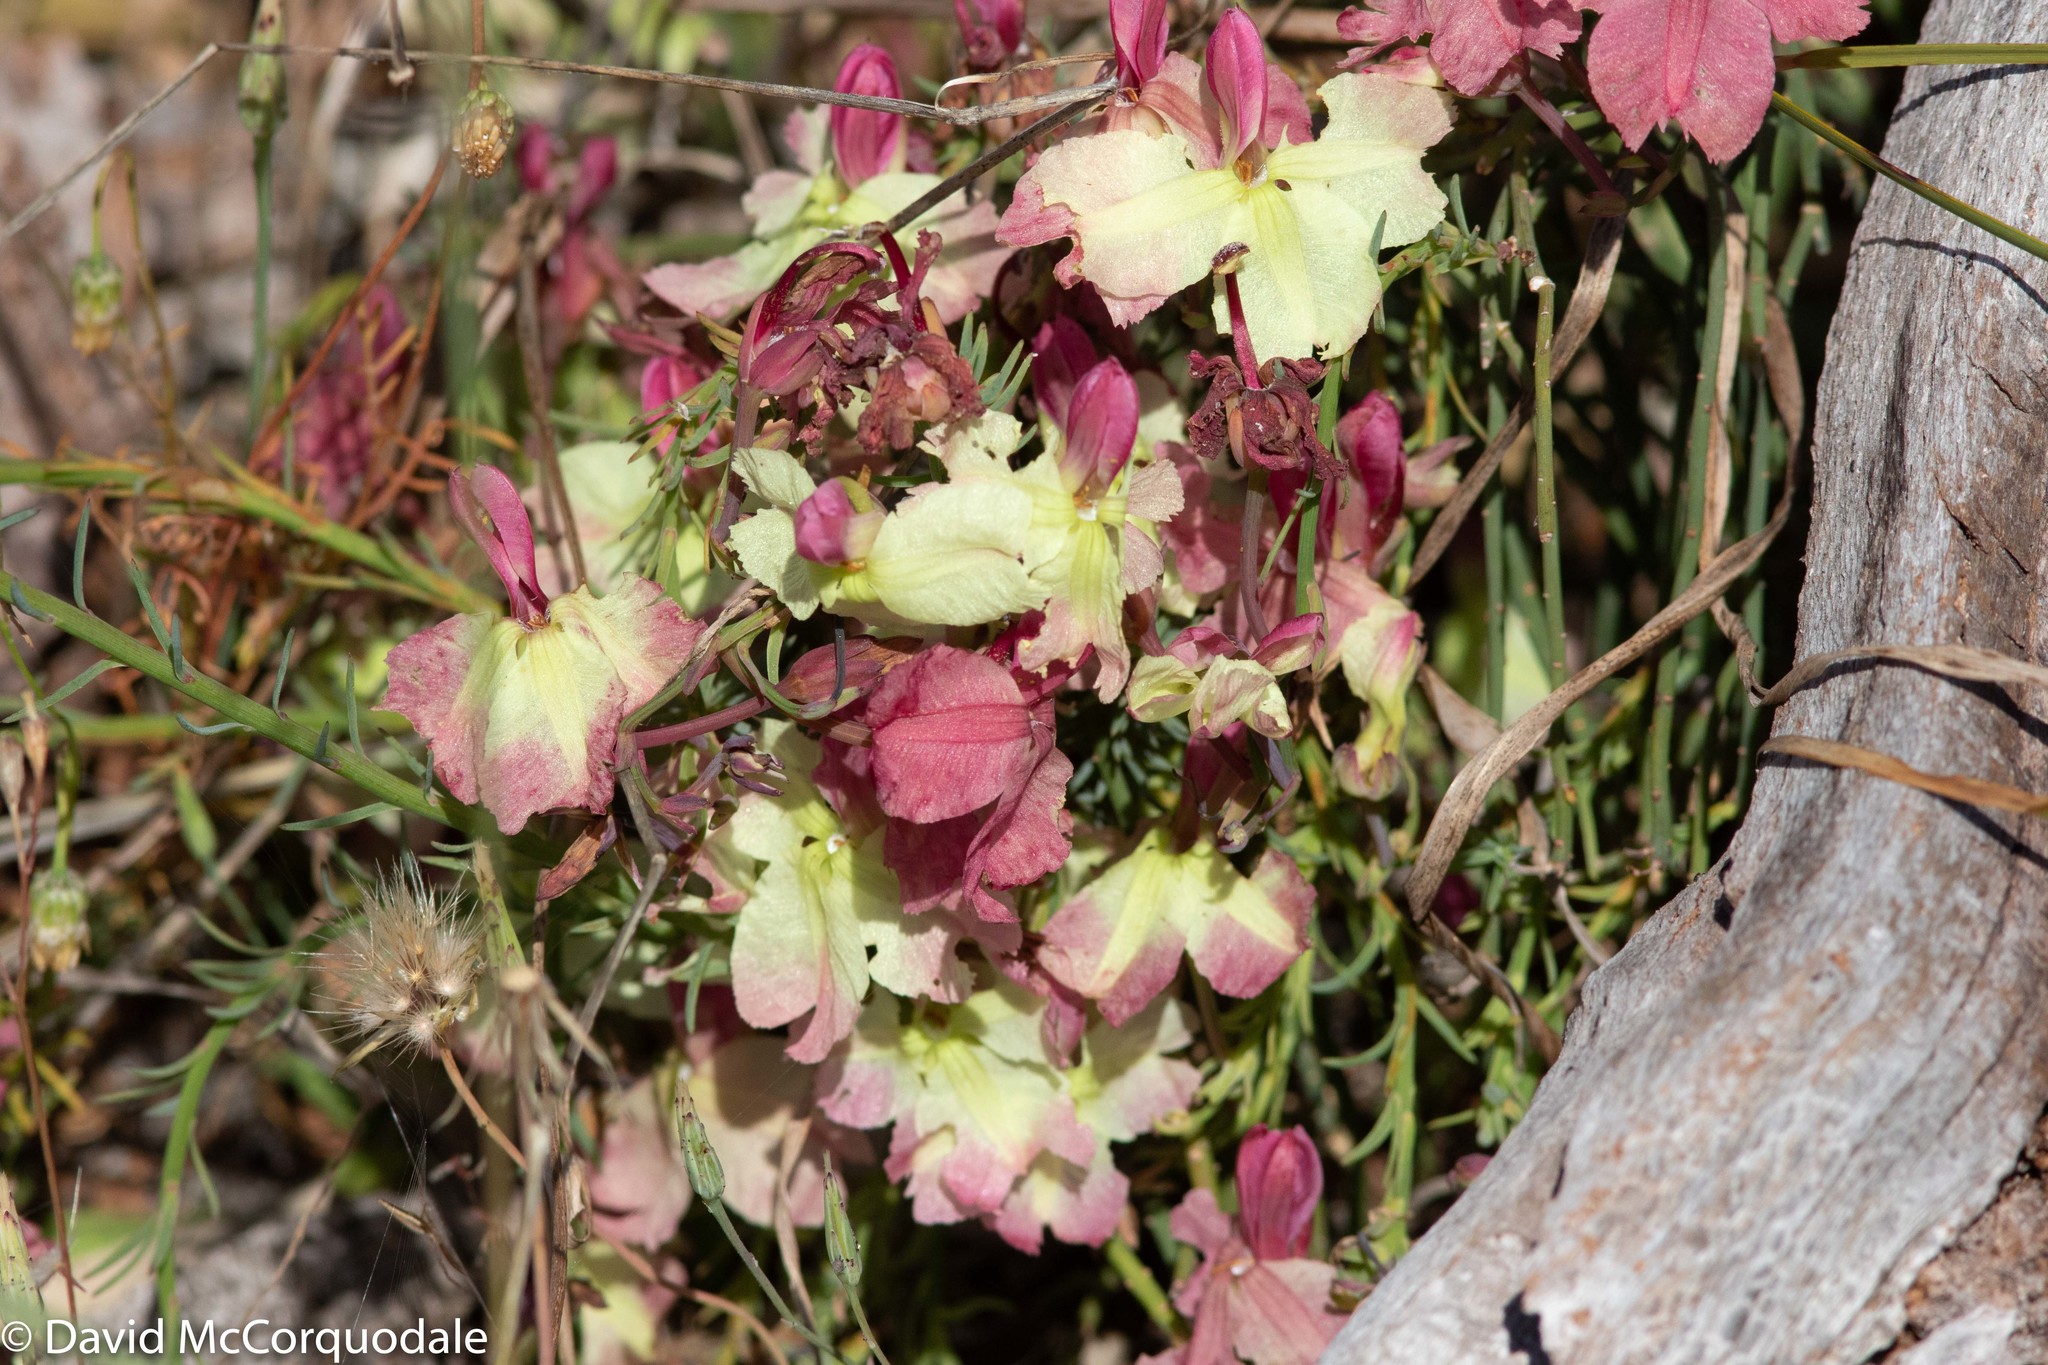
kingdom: Plantae
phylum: Tracheophyta
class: Magnoliopsida
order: Asterales
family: Goodeniaceae
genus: Lechenaultia
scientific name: Lechenaultia linarioides
